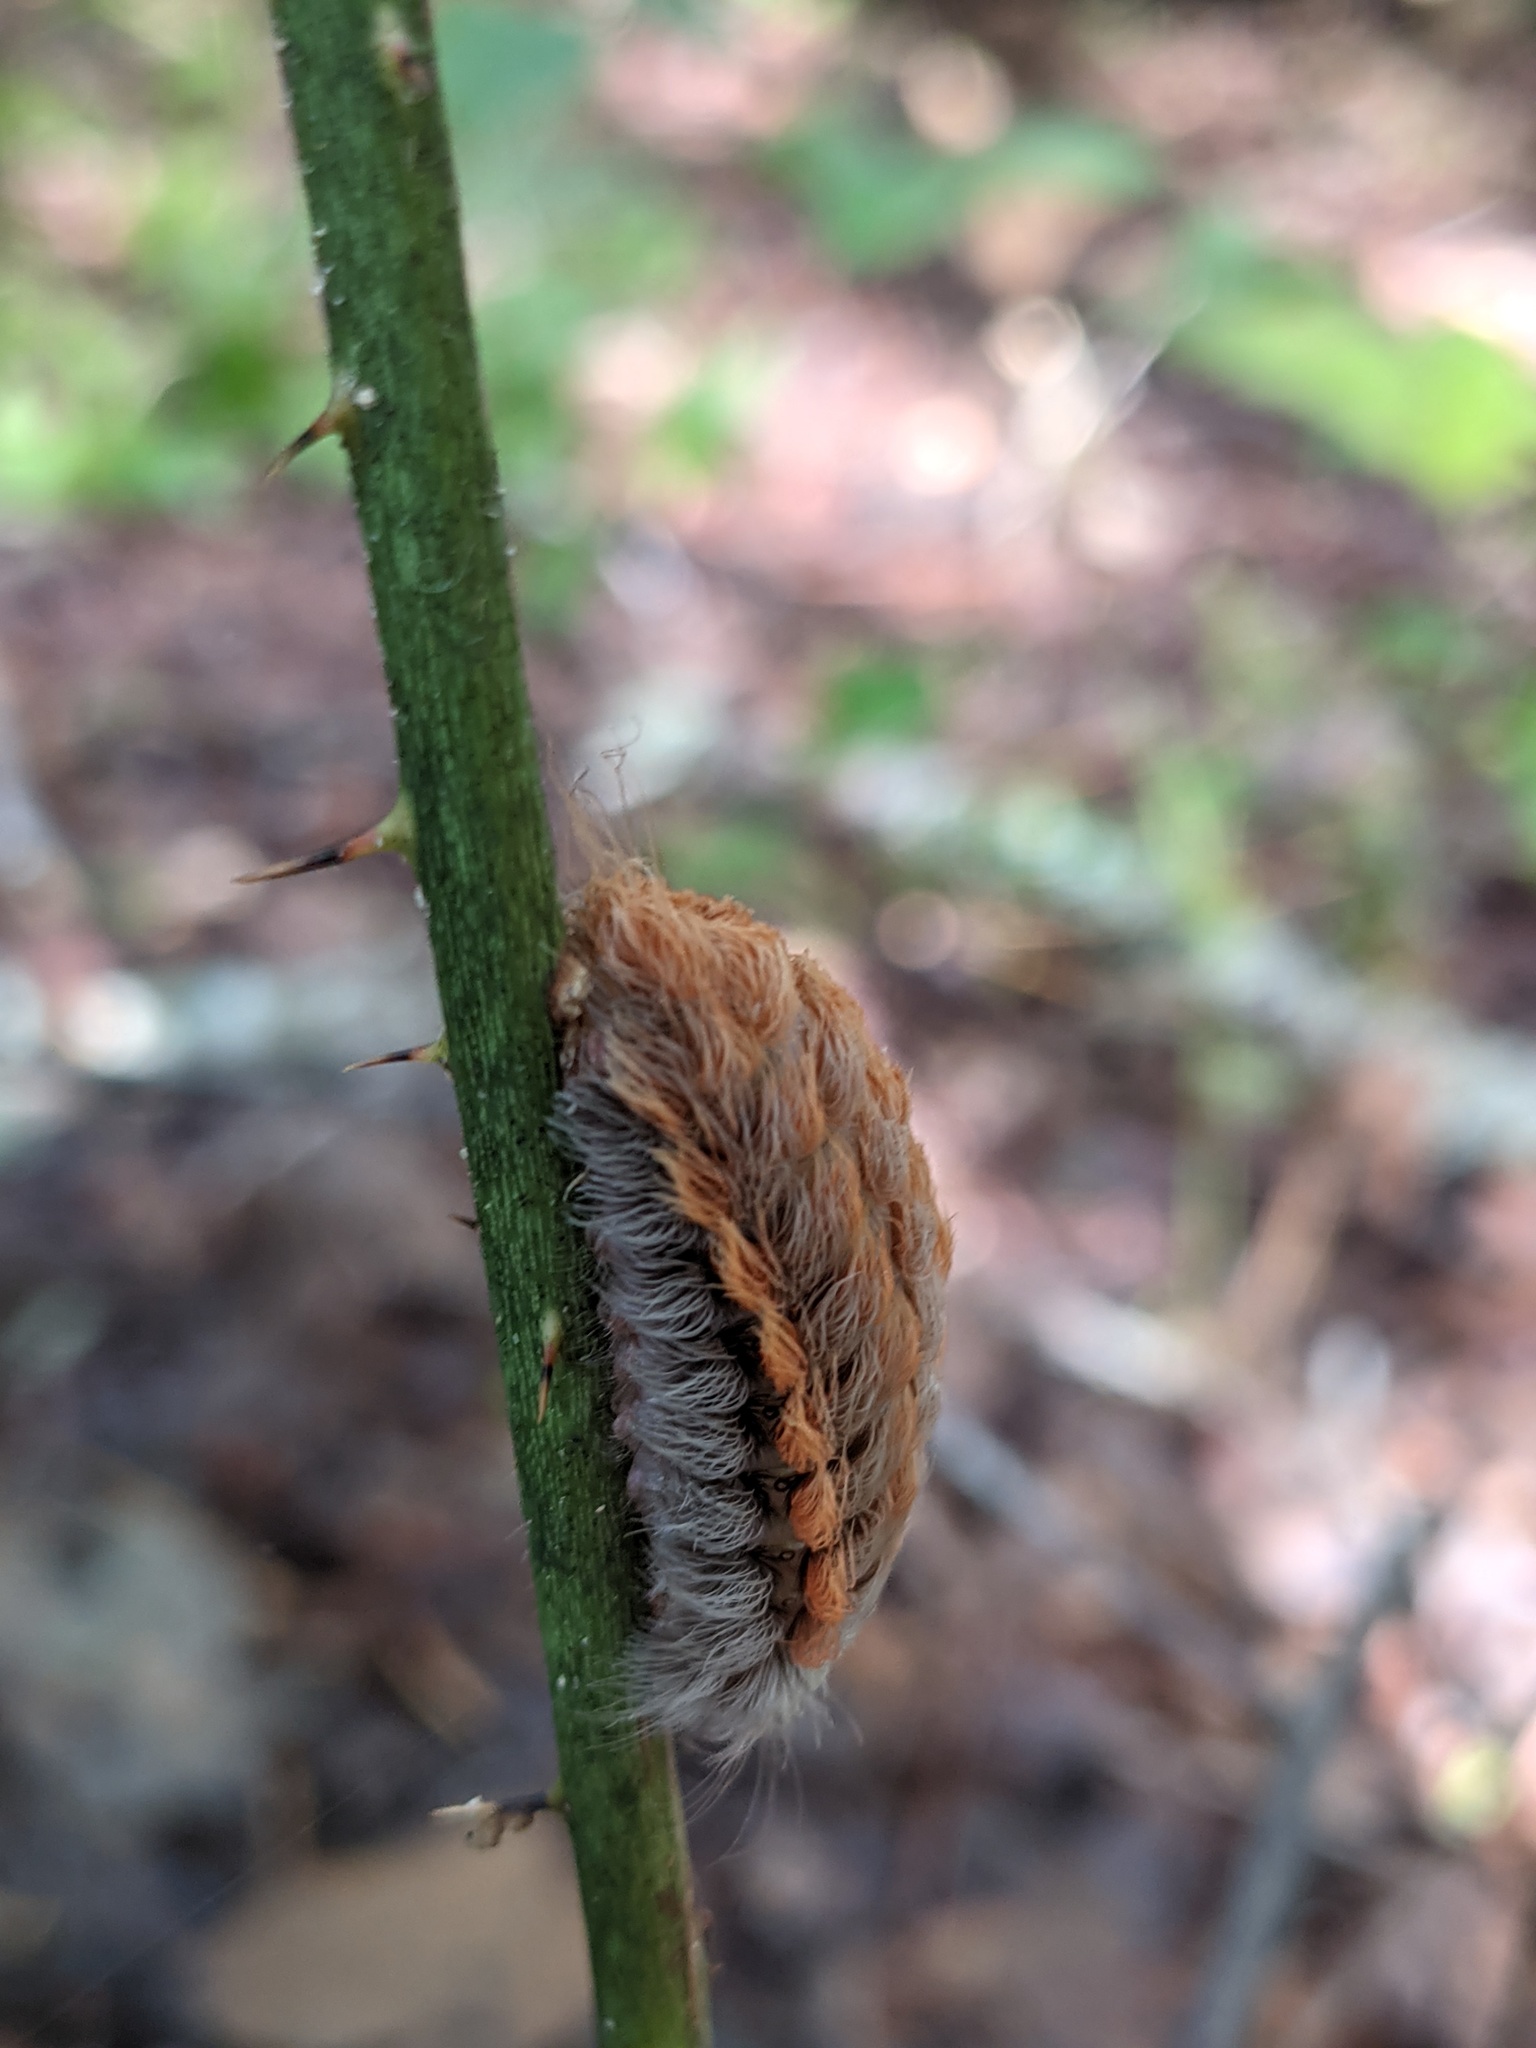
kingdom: Animalia
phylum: Arthropoda
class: Insecta
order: Lepidoptera
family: Megalopygidae
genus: Megalopyge
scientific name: Megalopyge crispata
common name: Black-waved flannel moth
